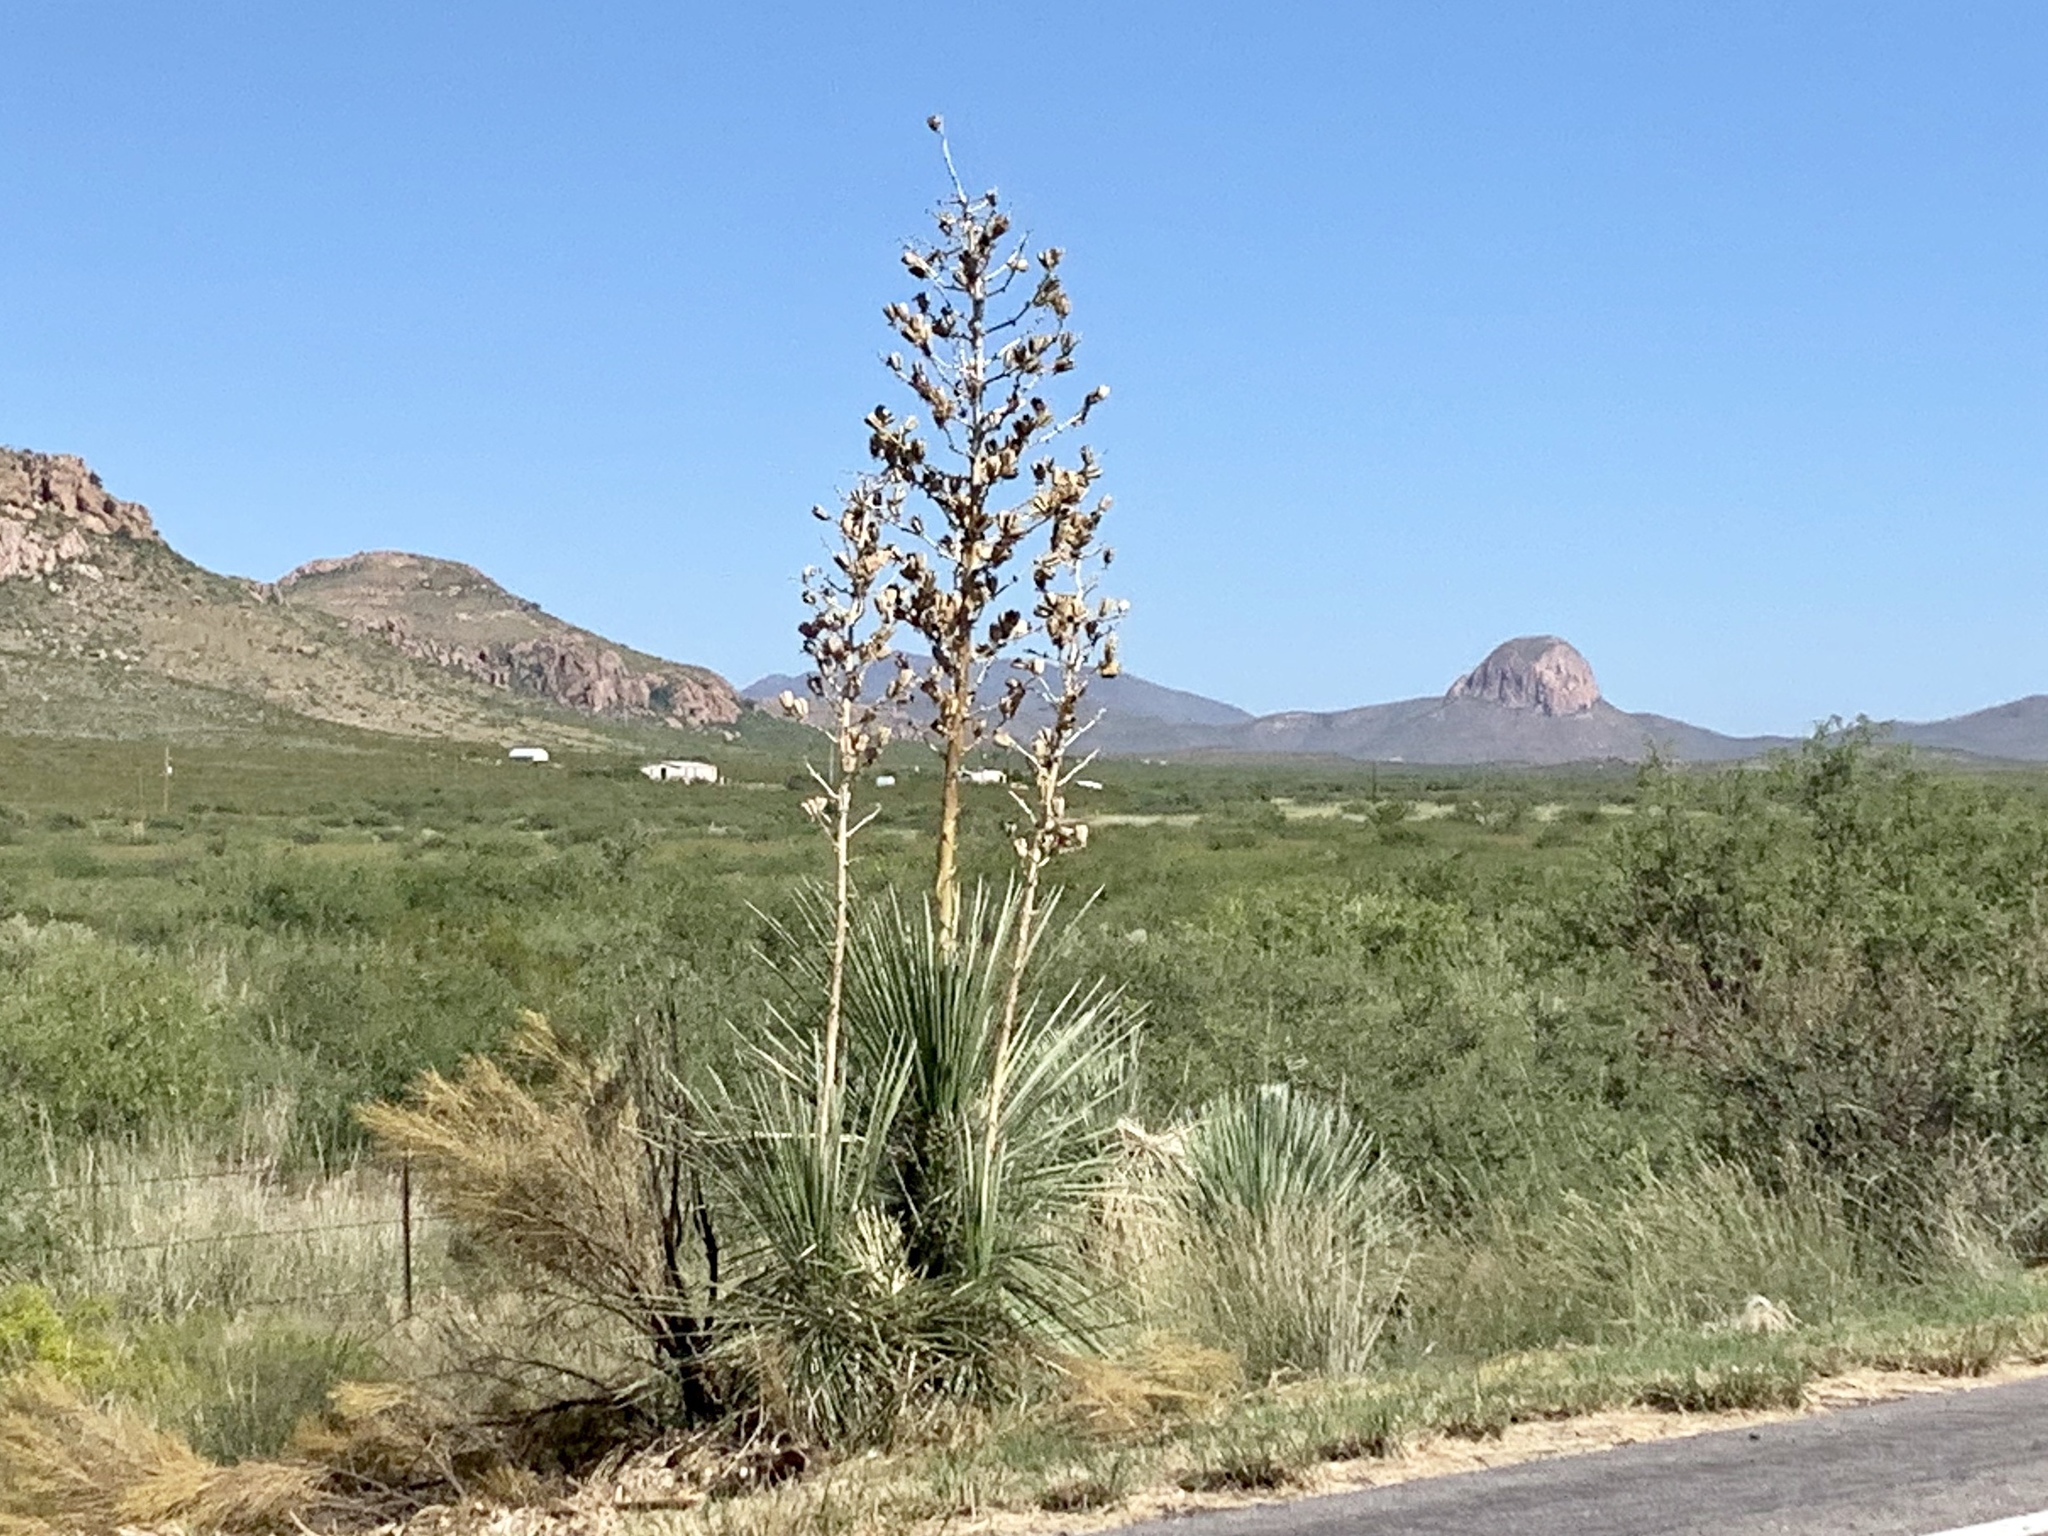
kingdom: Plantae
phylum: Tracheophyta
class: Liliopsida
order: Asparagales
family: Asparagaceae
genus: Yucca
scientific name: Yucca elata
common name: Palmella
